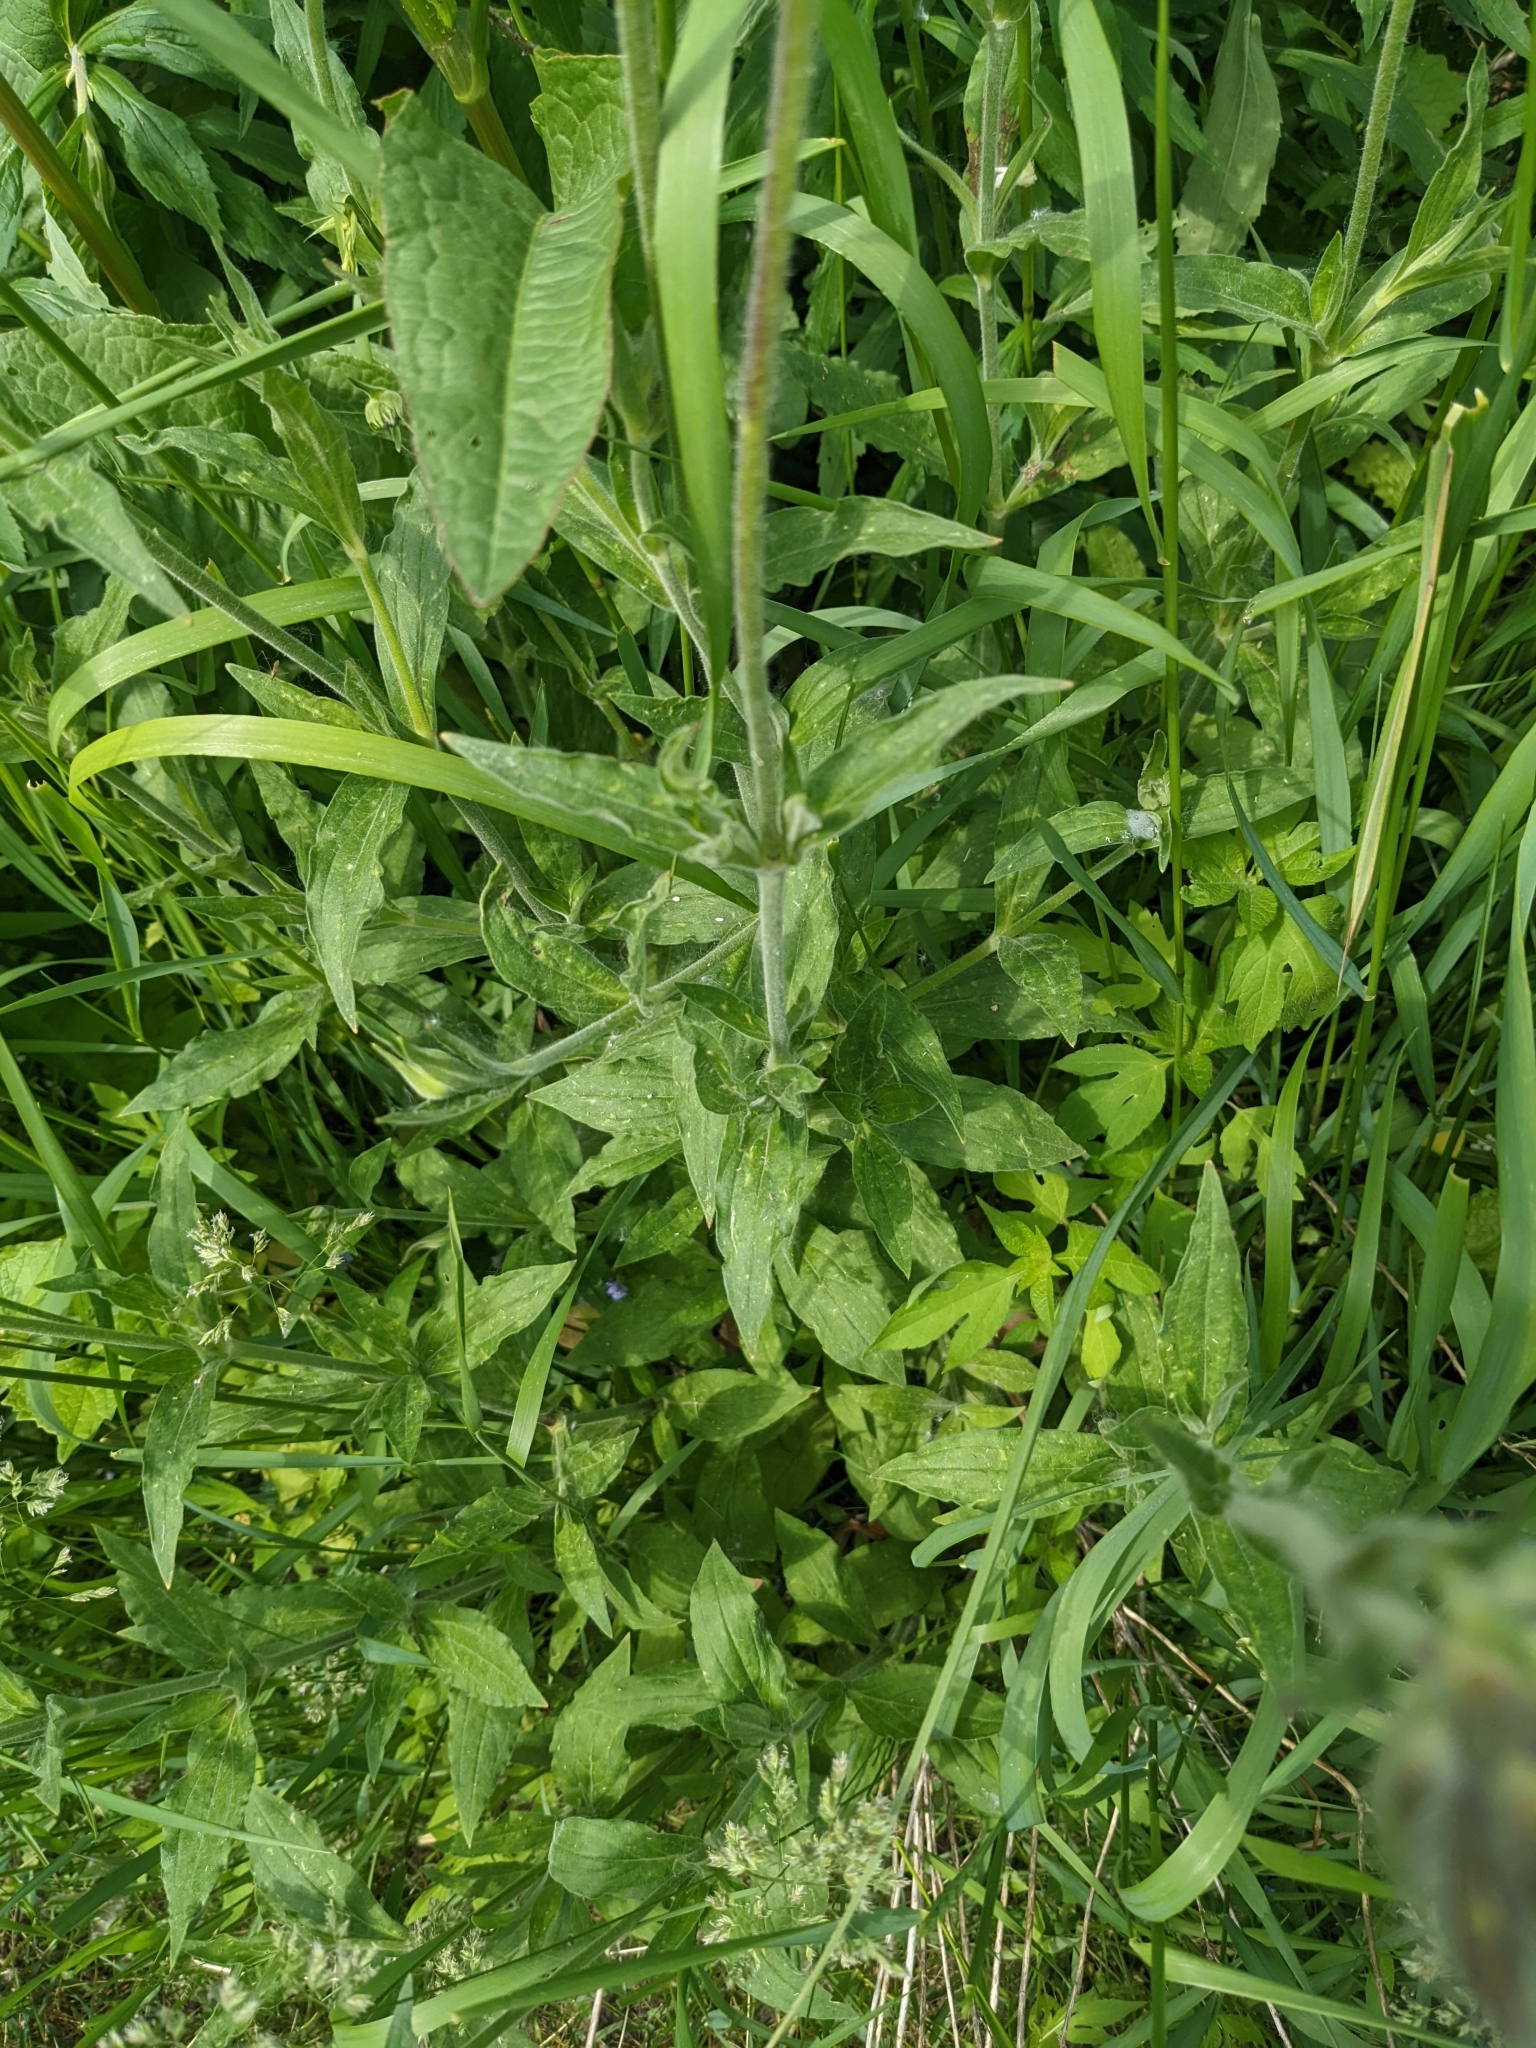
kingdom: Plantae
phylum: Tracheophyta
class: Magnoliopsida
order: Caryophyllales
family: Caryophyllaceae
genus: Silene
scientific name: Silene latifolia
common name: White campion
